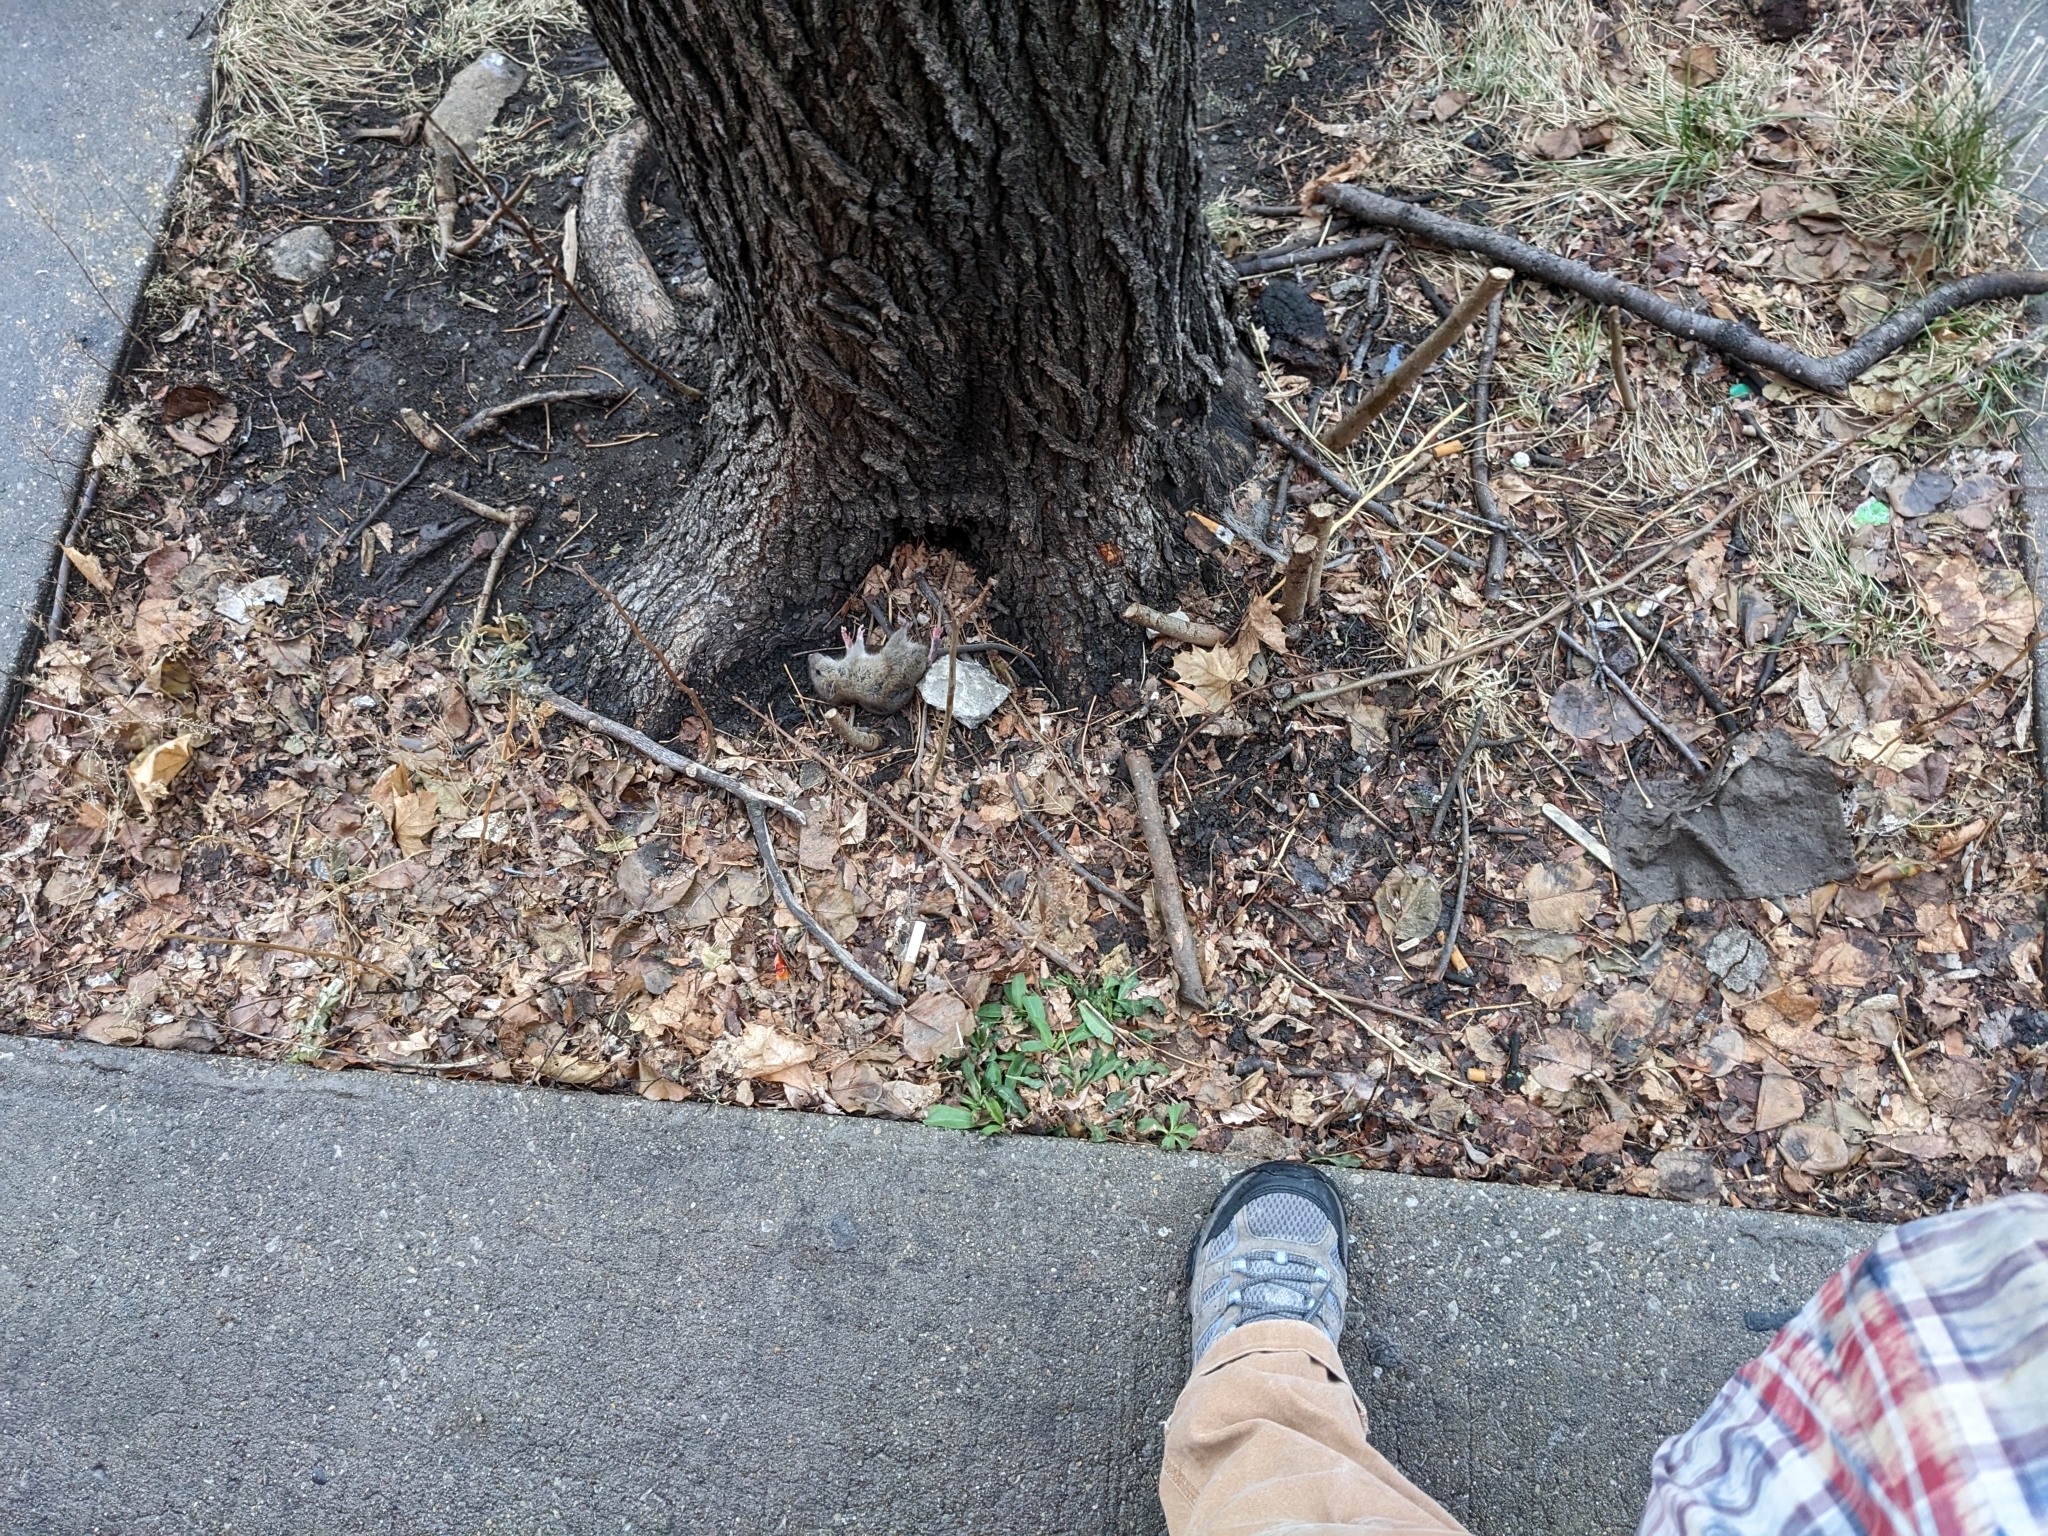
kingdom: Animalia
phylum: Chordata
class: Mammalia
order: Rodentia
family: Muridae
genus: Rattus
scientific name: Rattus norvegicus
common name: Brown rat
